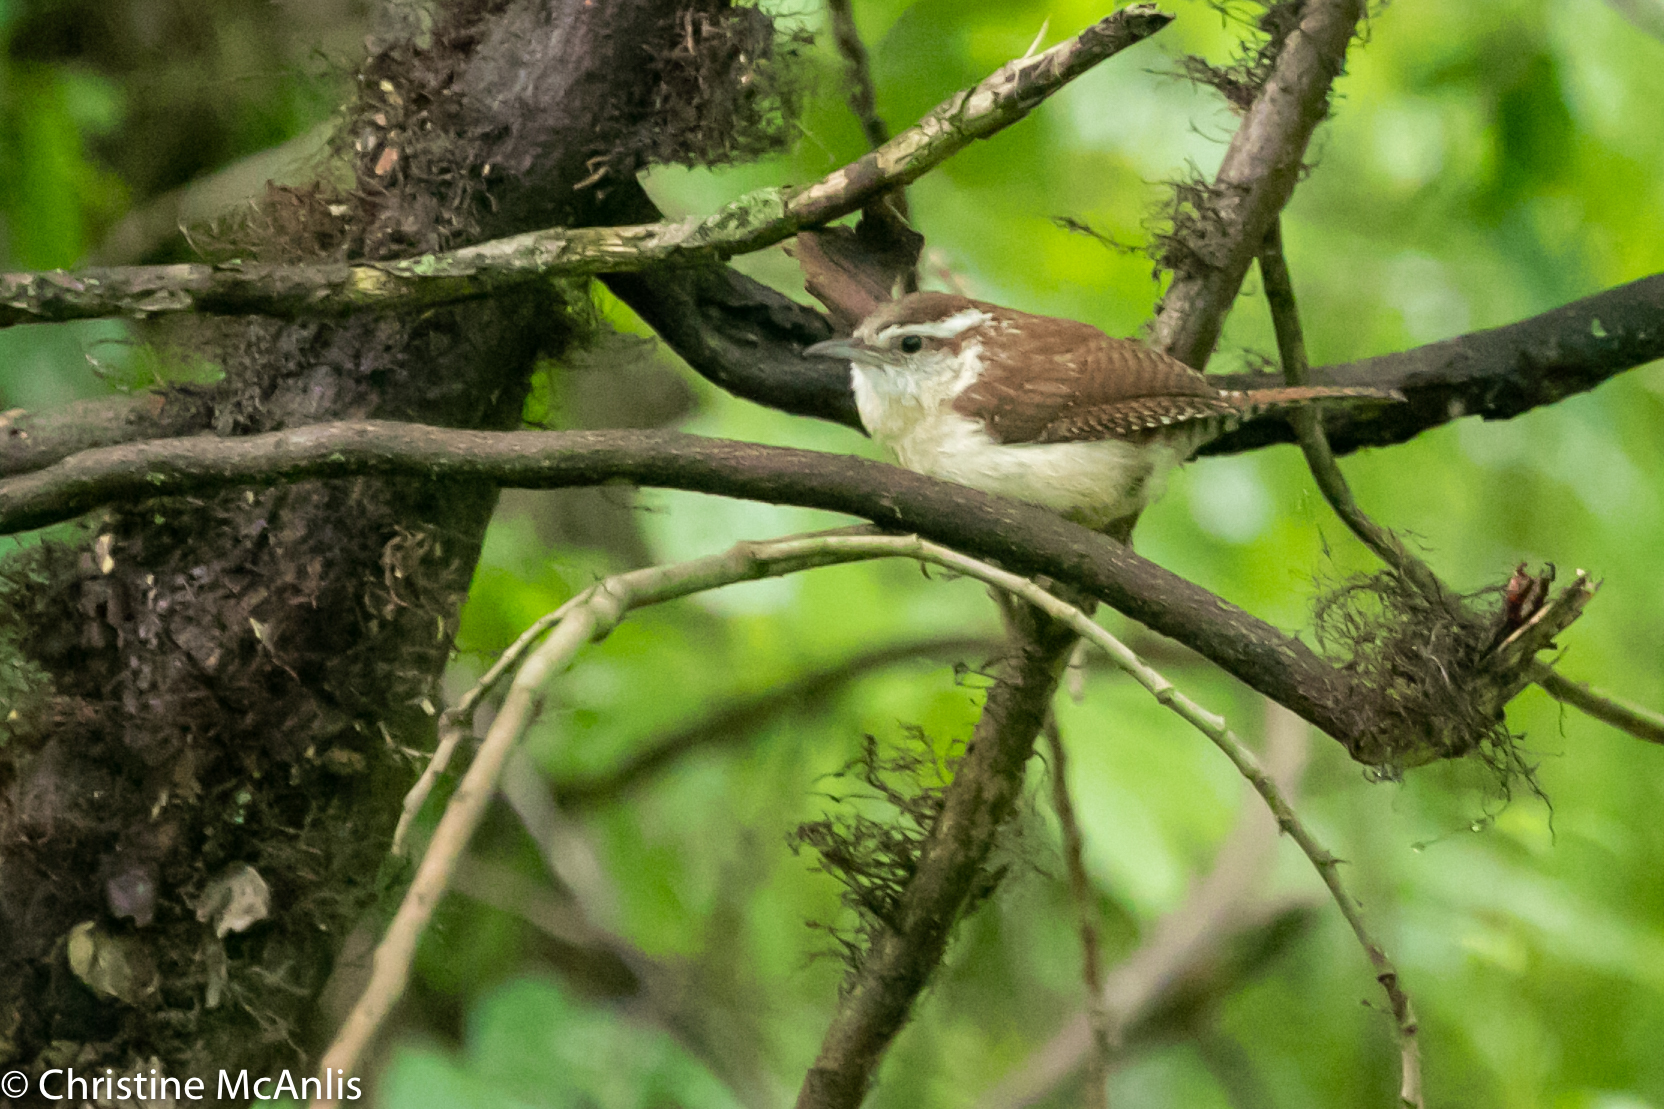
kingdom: Animalia
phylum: Chordata
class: Aves
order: Passeriformes
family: Troglodytidae
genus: Thryothorus
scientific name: Thryothorus ludovicianus
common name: Carolina wren
